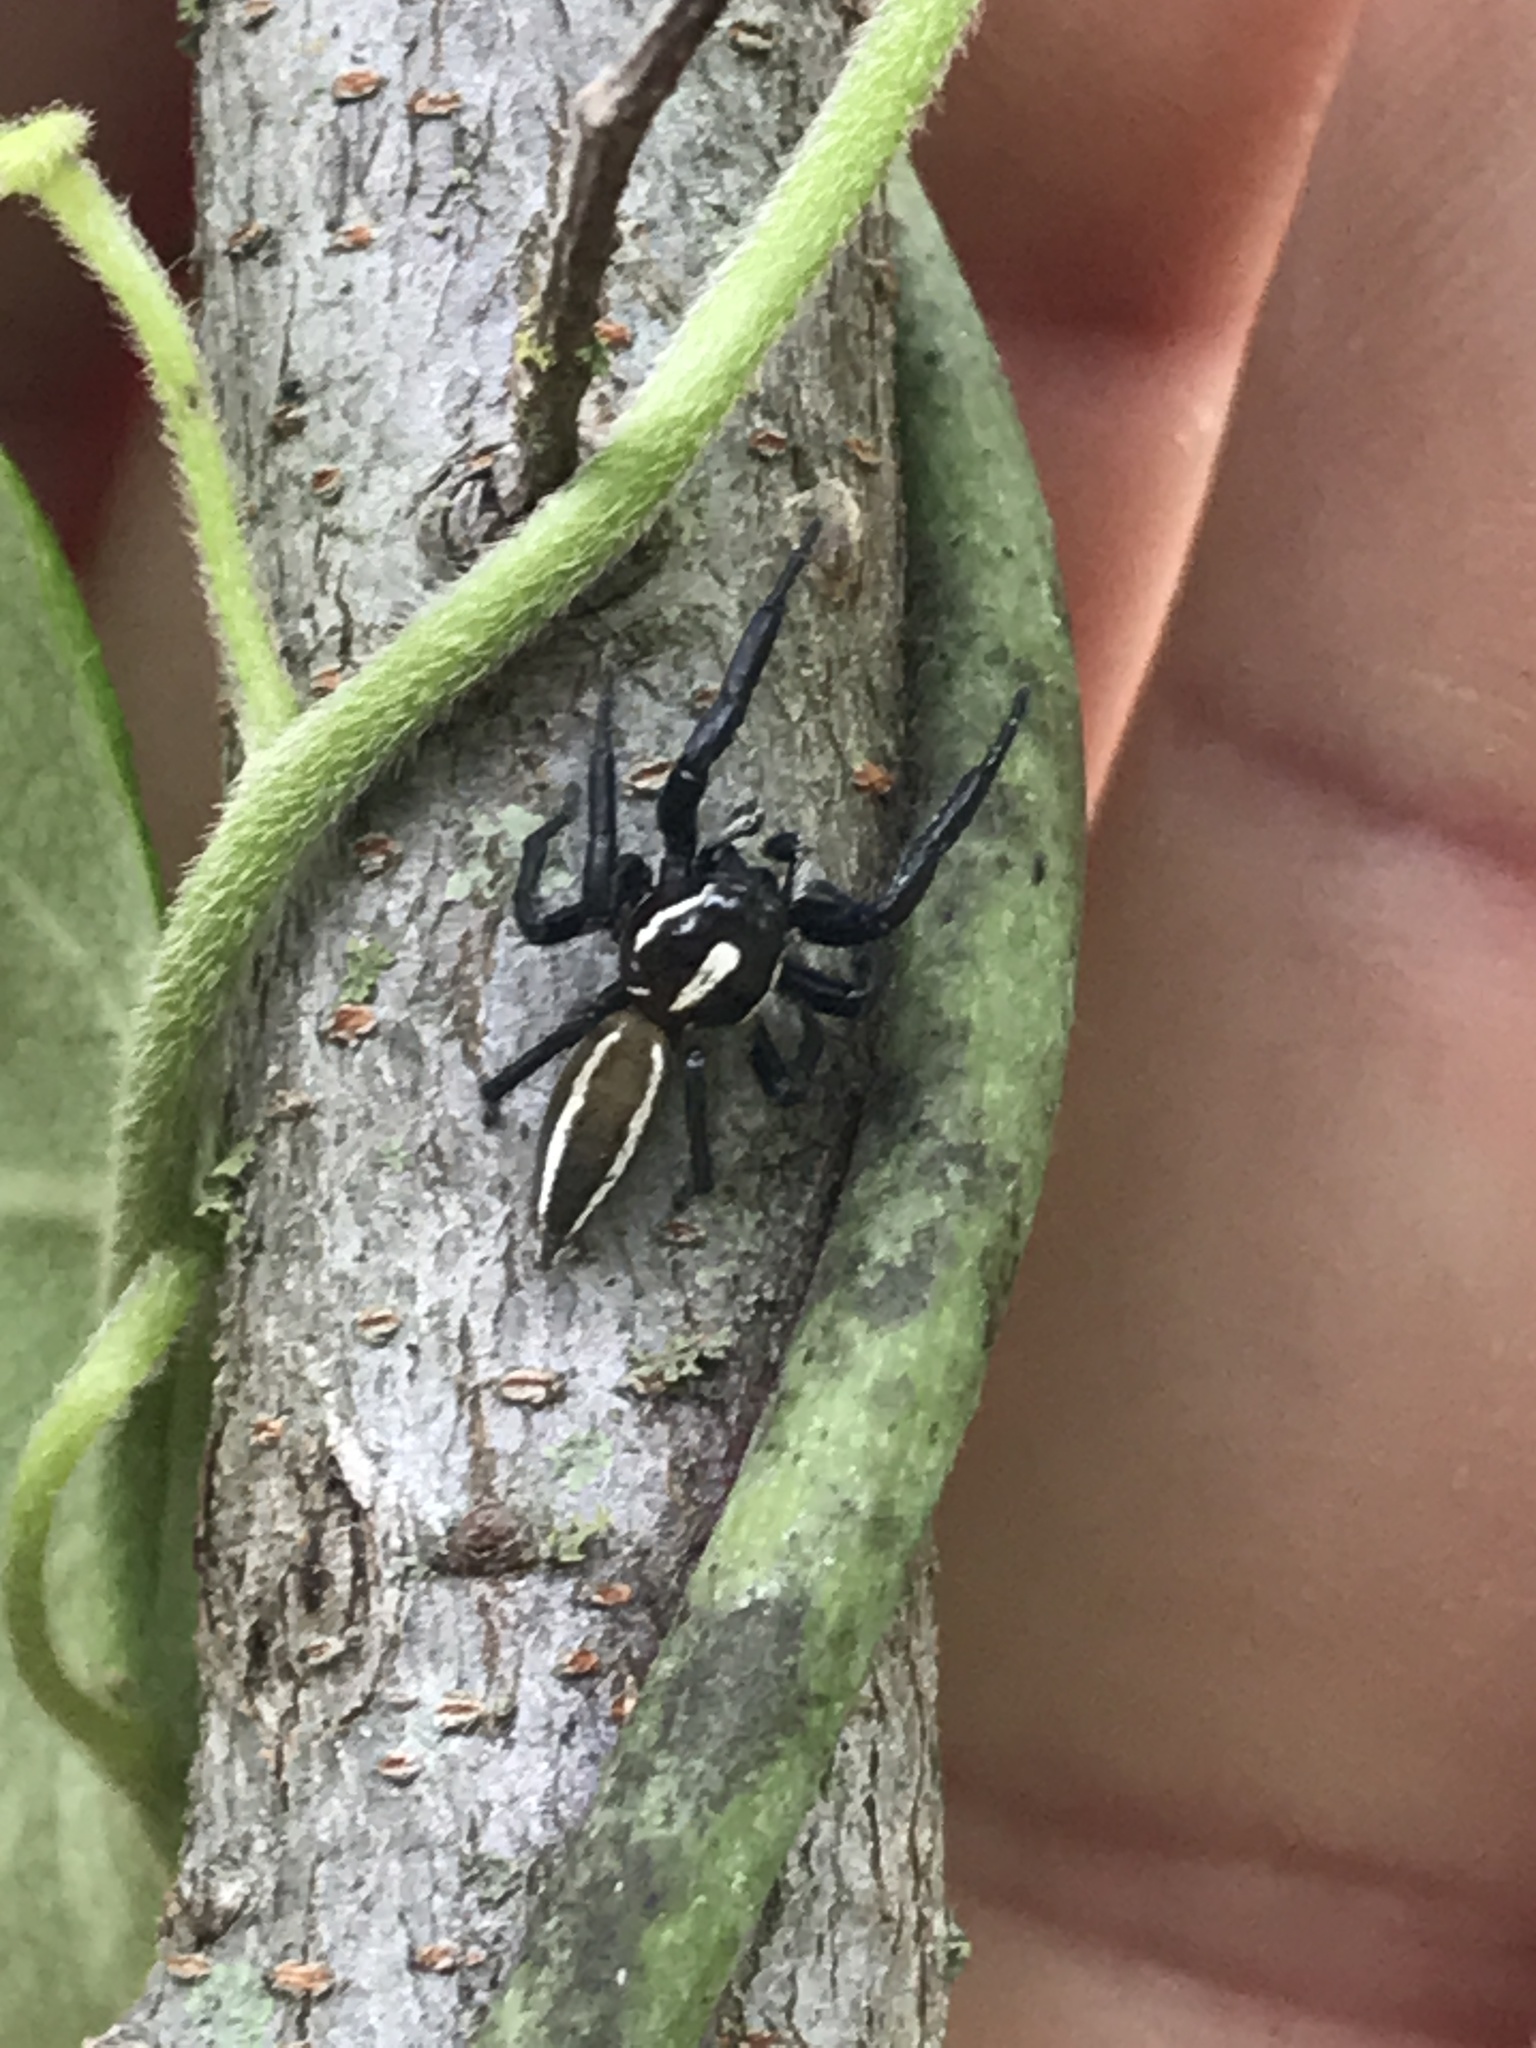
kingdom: Animalia
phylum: Arthropoda
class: Arachnida
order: Araneae
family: Salticidae
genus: Colonus
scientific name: Colonus puerperus
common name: Jumping spiders
